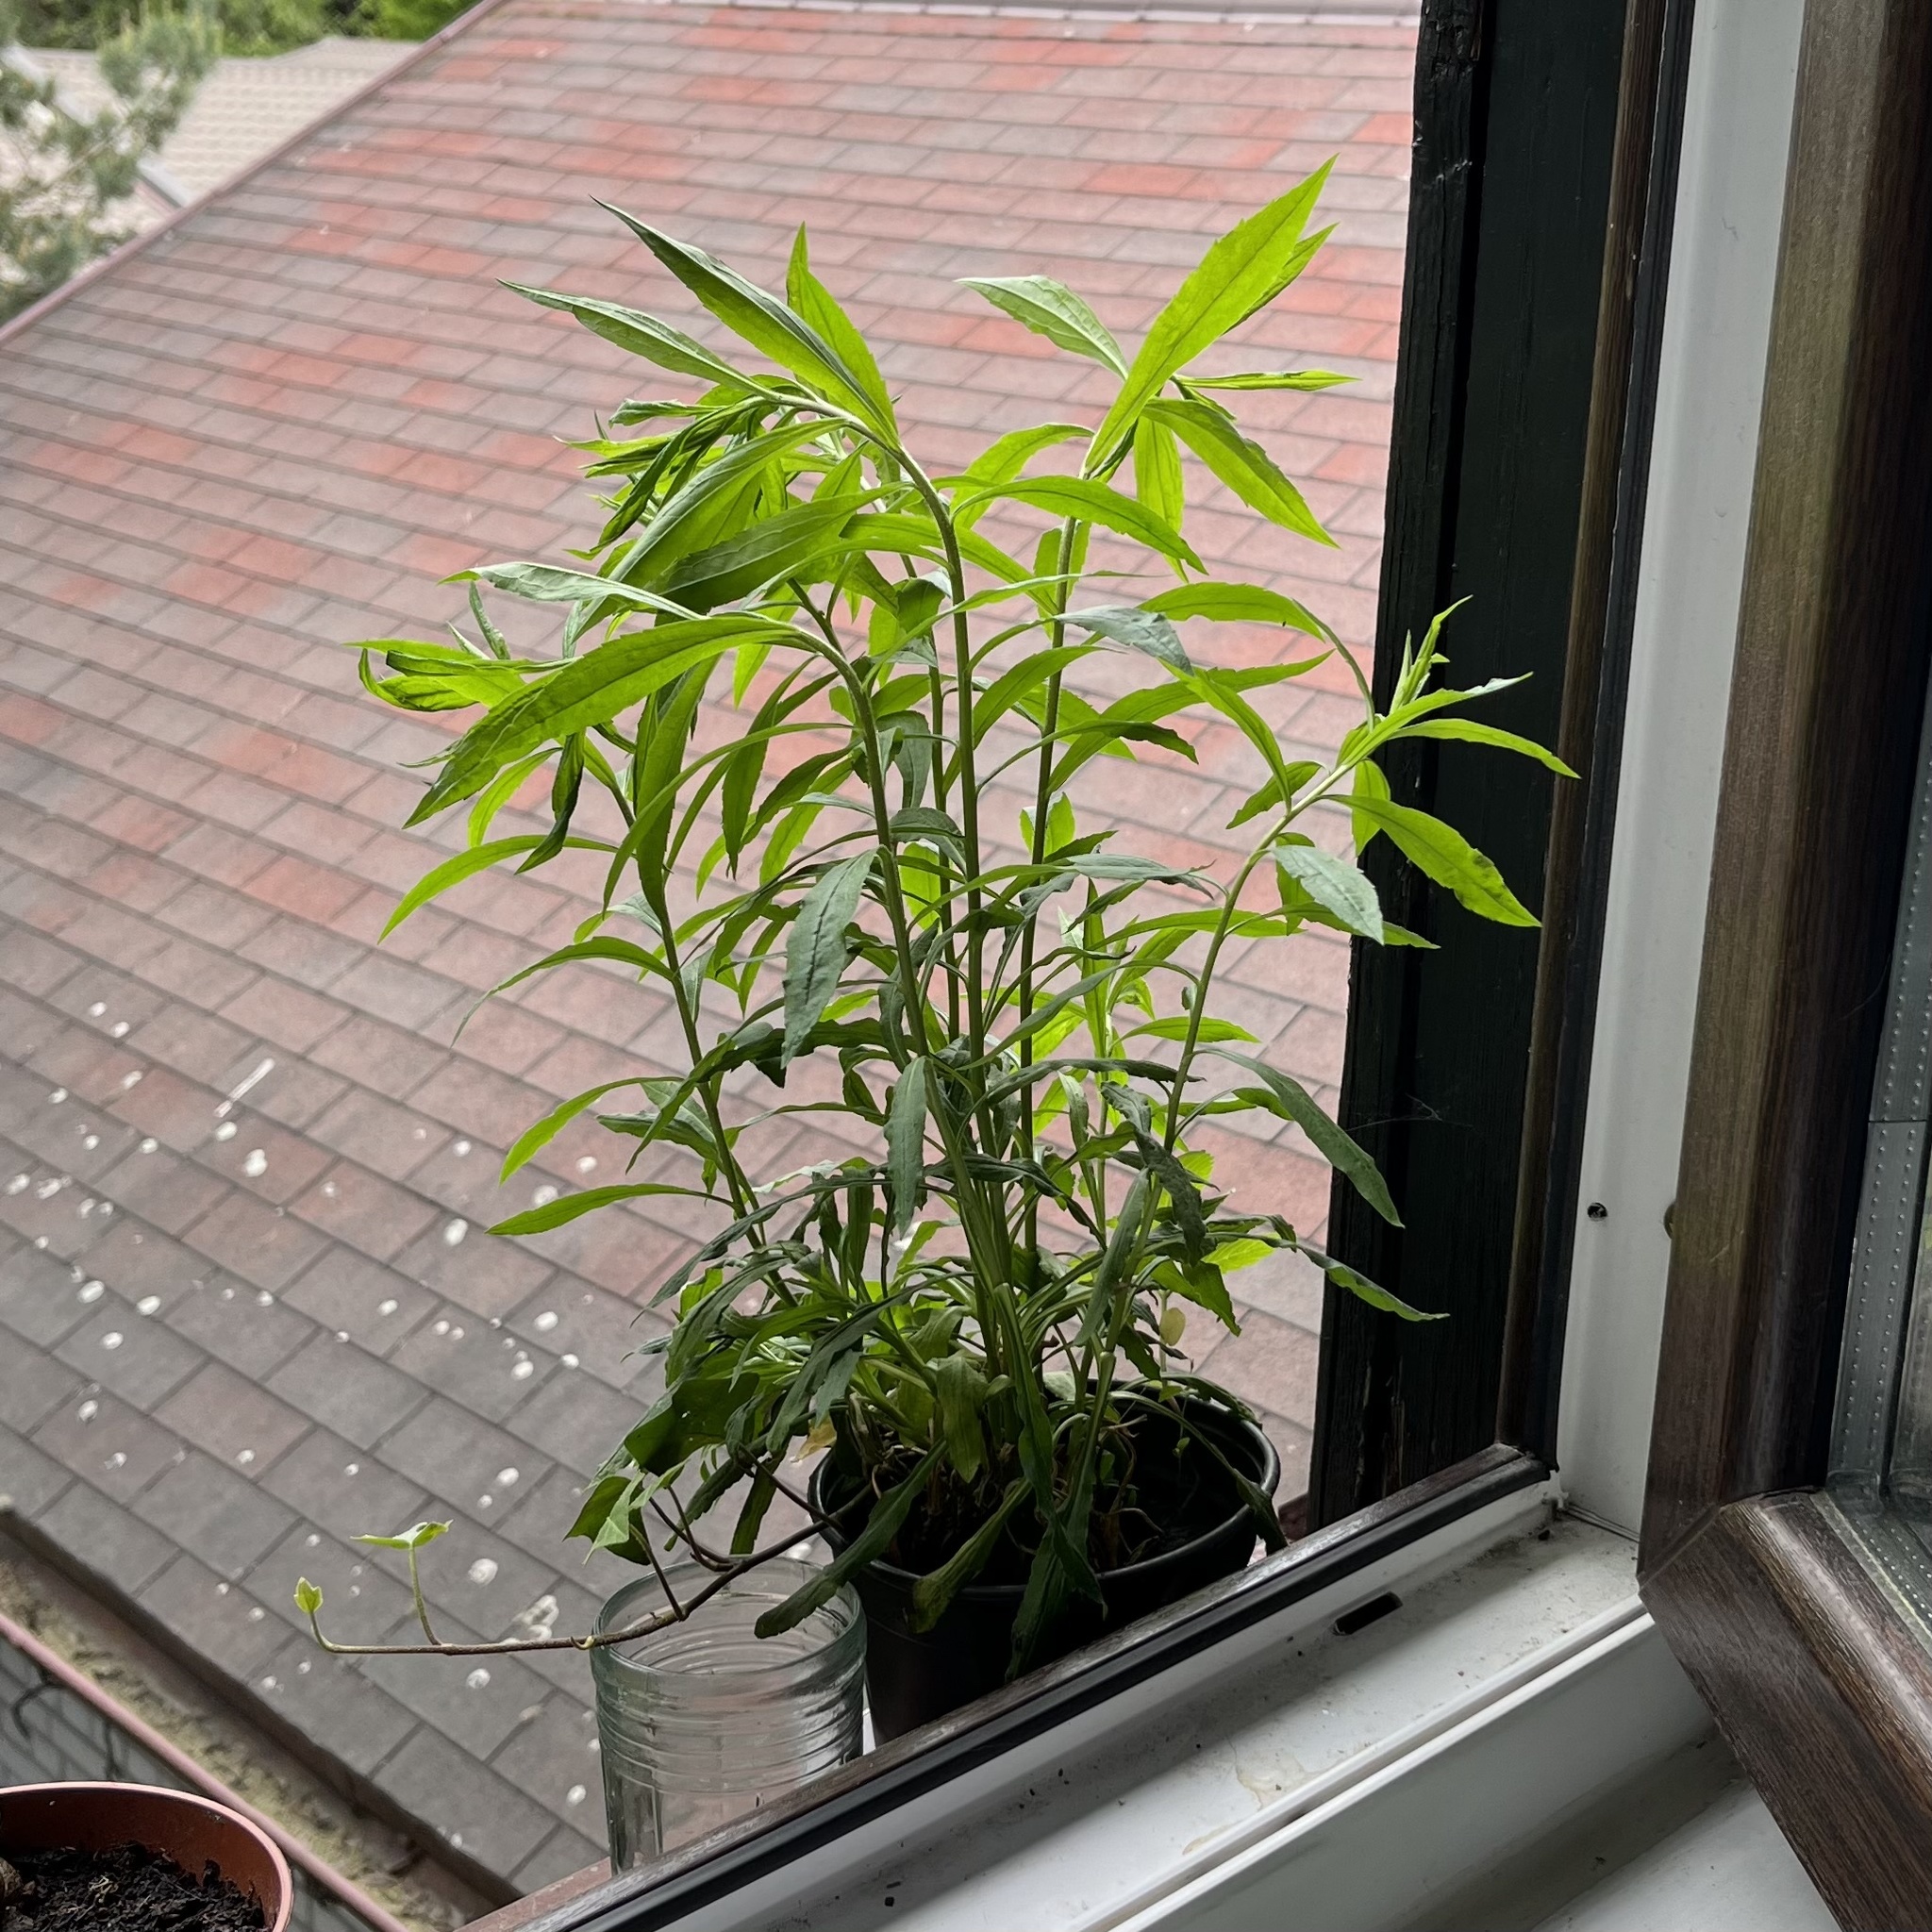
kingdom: Plantae
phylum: Tracheophyta
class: Magnoliopsida
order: Asterales
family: Asteraceae
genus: Solidago
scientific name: Solidago canadensis
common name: Canada goldenrod
